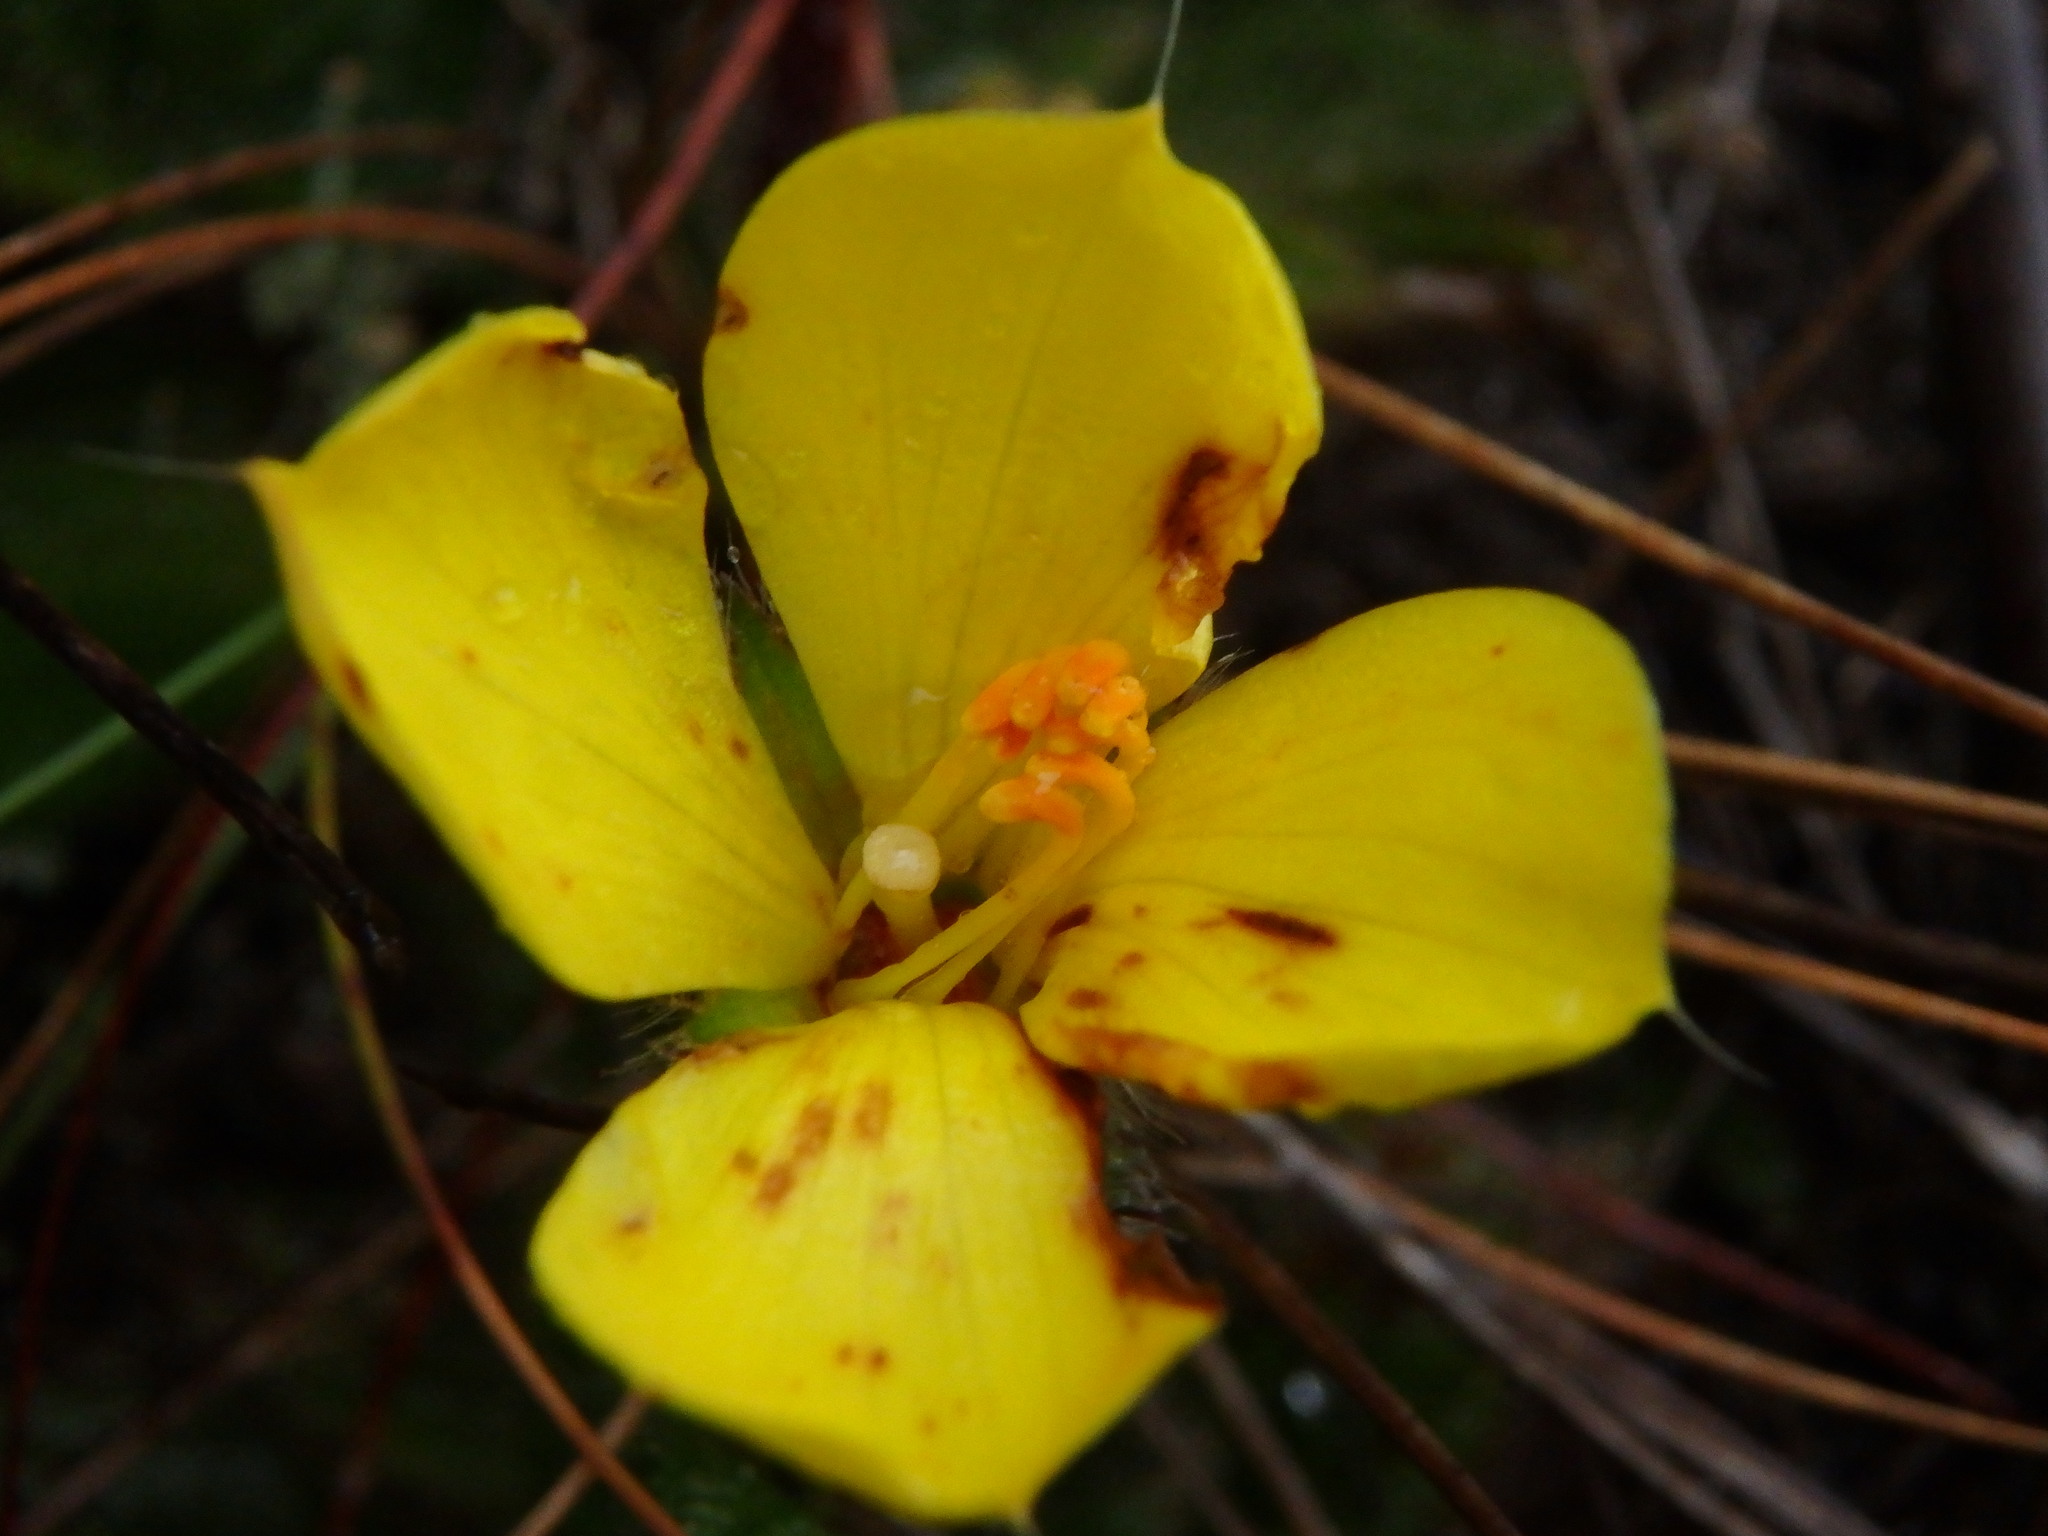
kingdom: Plantae
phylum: Tracheophyta
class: Magnoliopsida
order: Myrtales
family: Melastomataceae
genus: Castratella
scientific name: Castratella piloselloides
